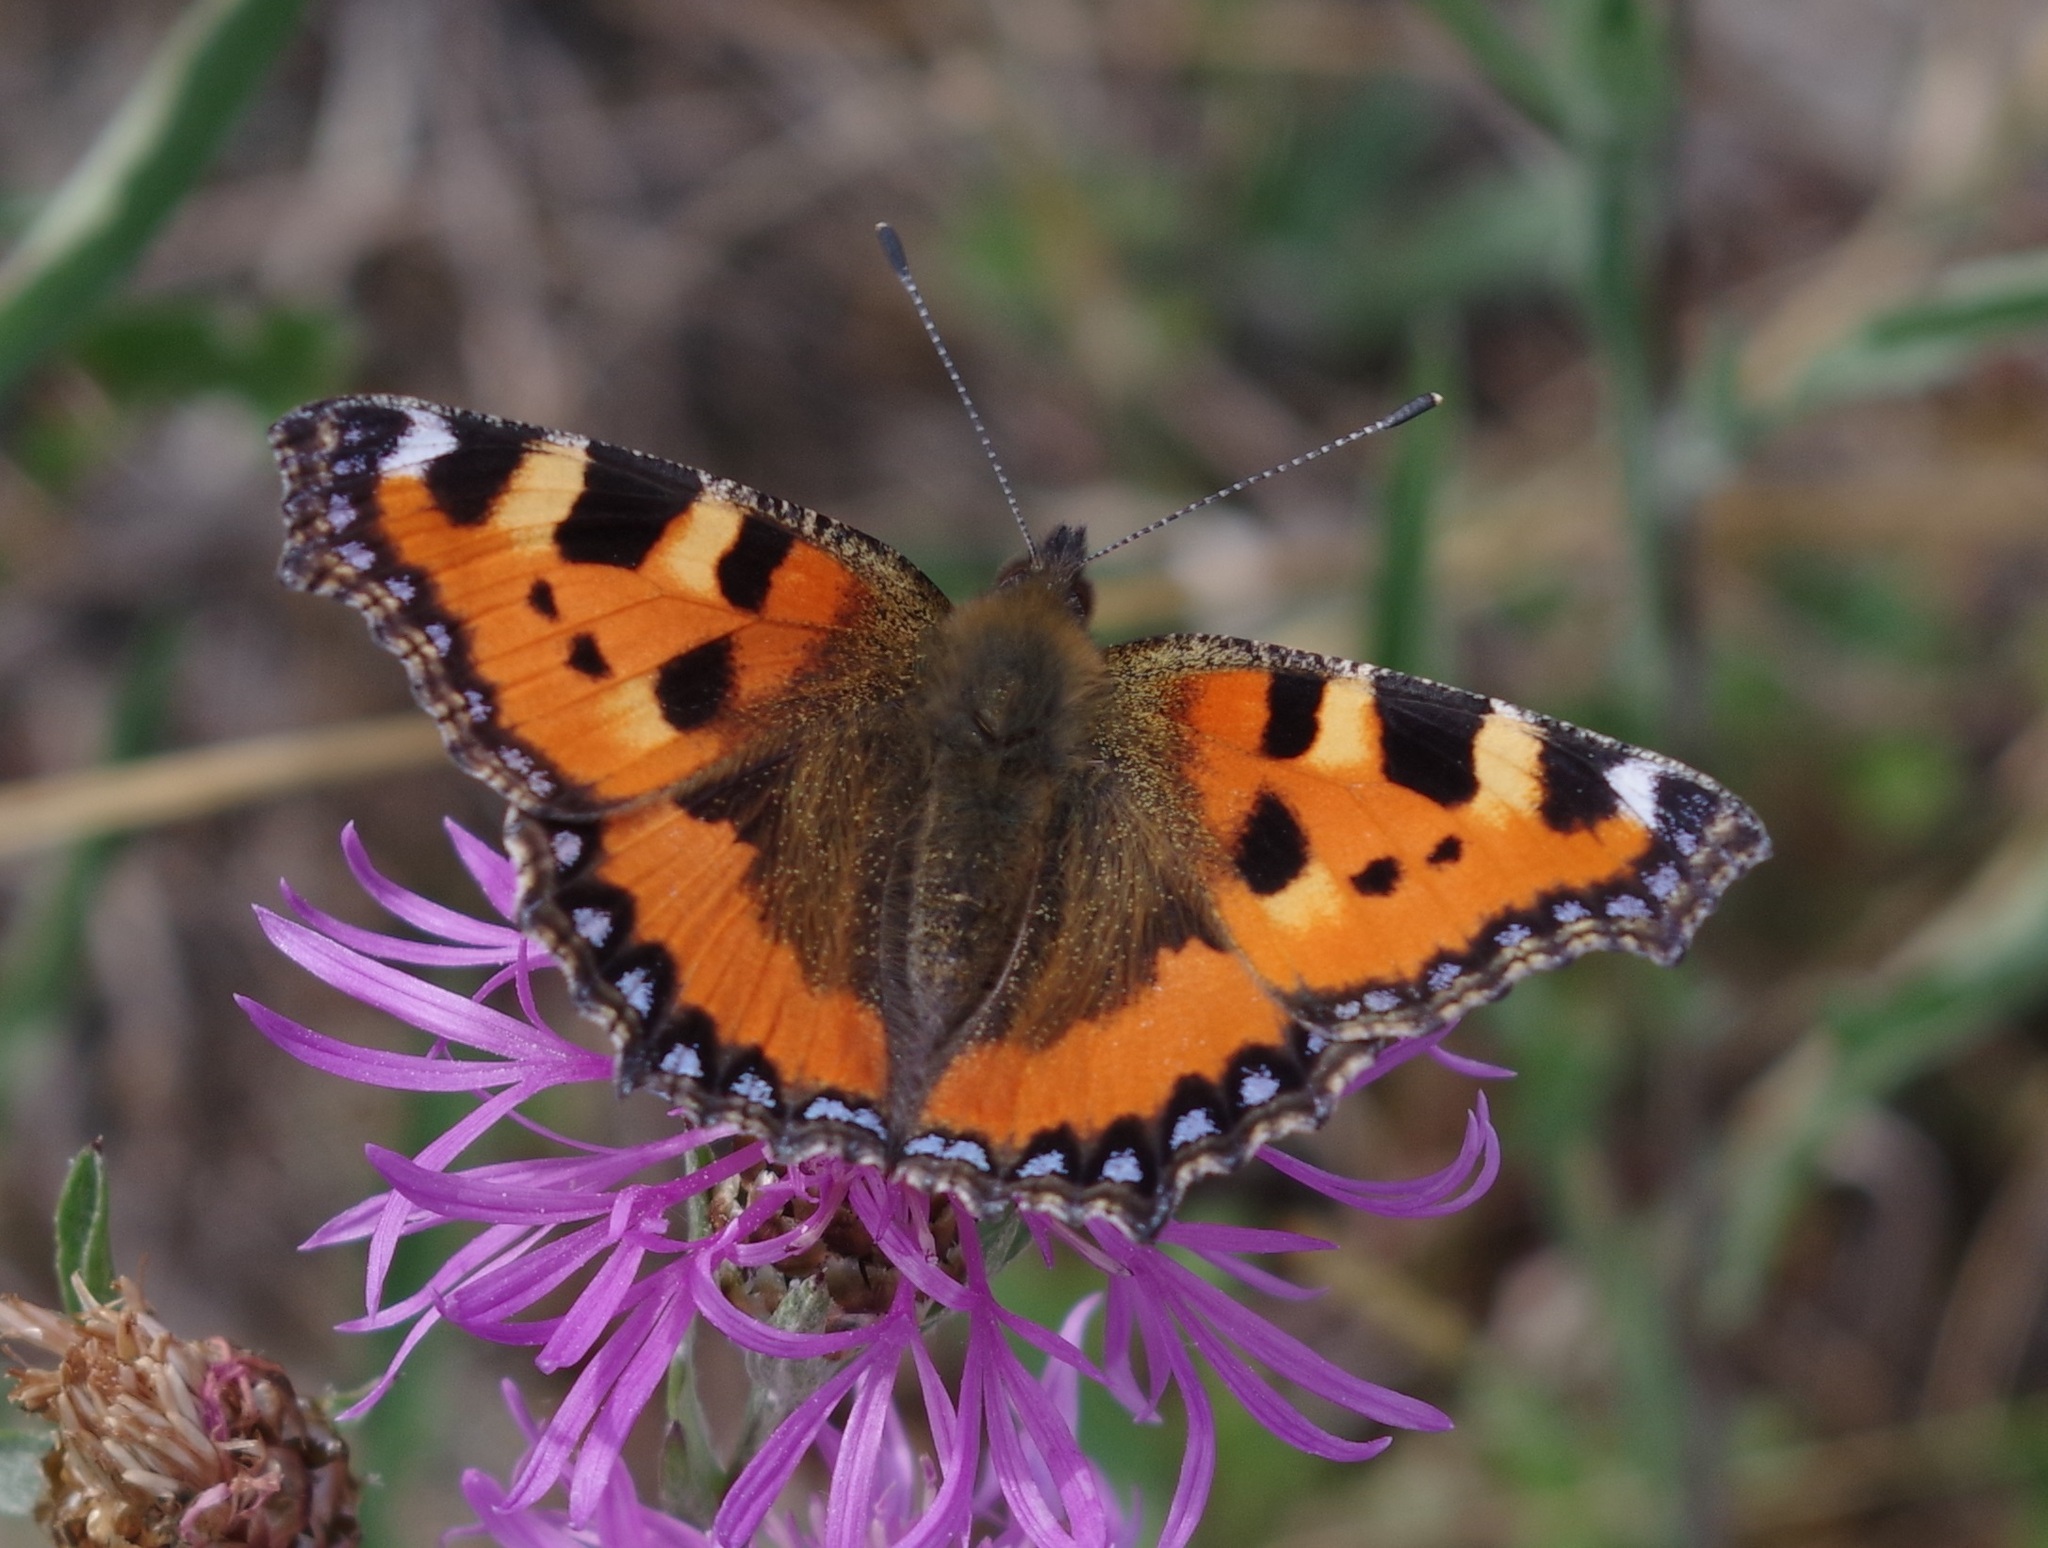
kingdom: Animalia
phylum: Arthropoda
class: Insecta
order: Lepidoptera
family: Nymphalidae
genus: Aglais
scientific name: Aglais urticae
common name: Small tortoiseshell
